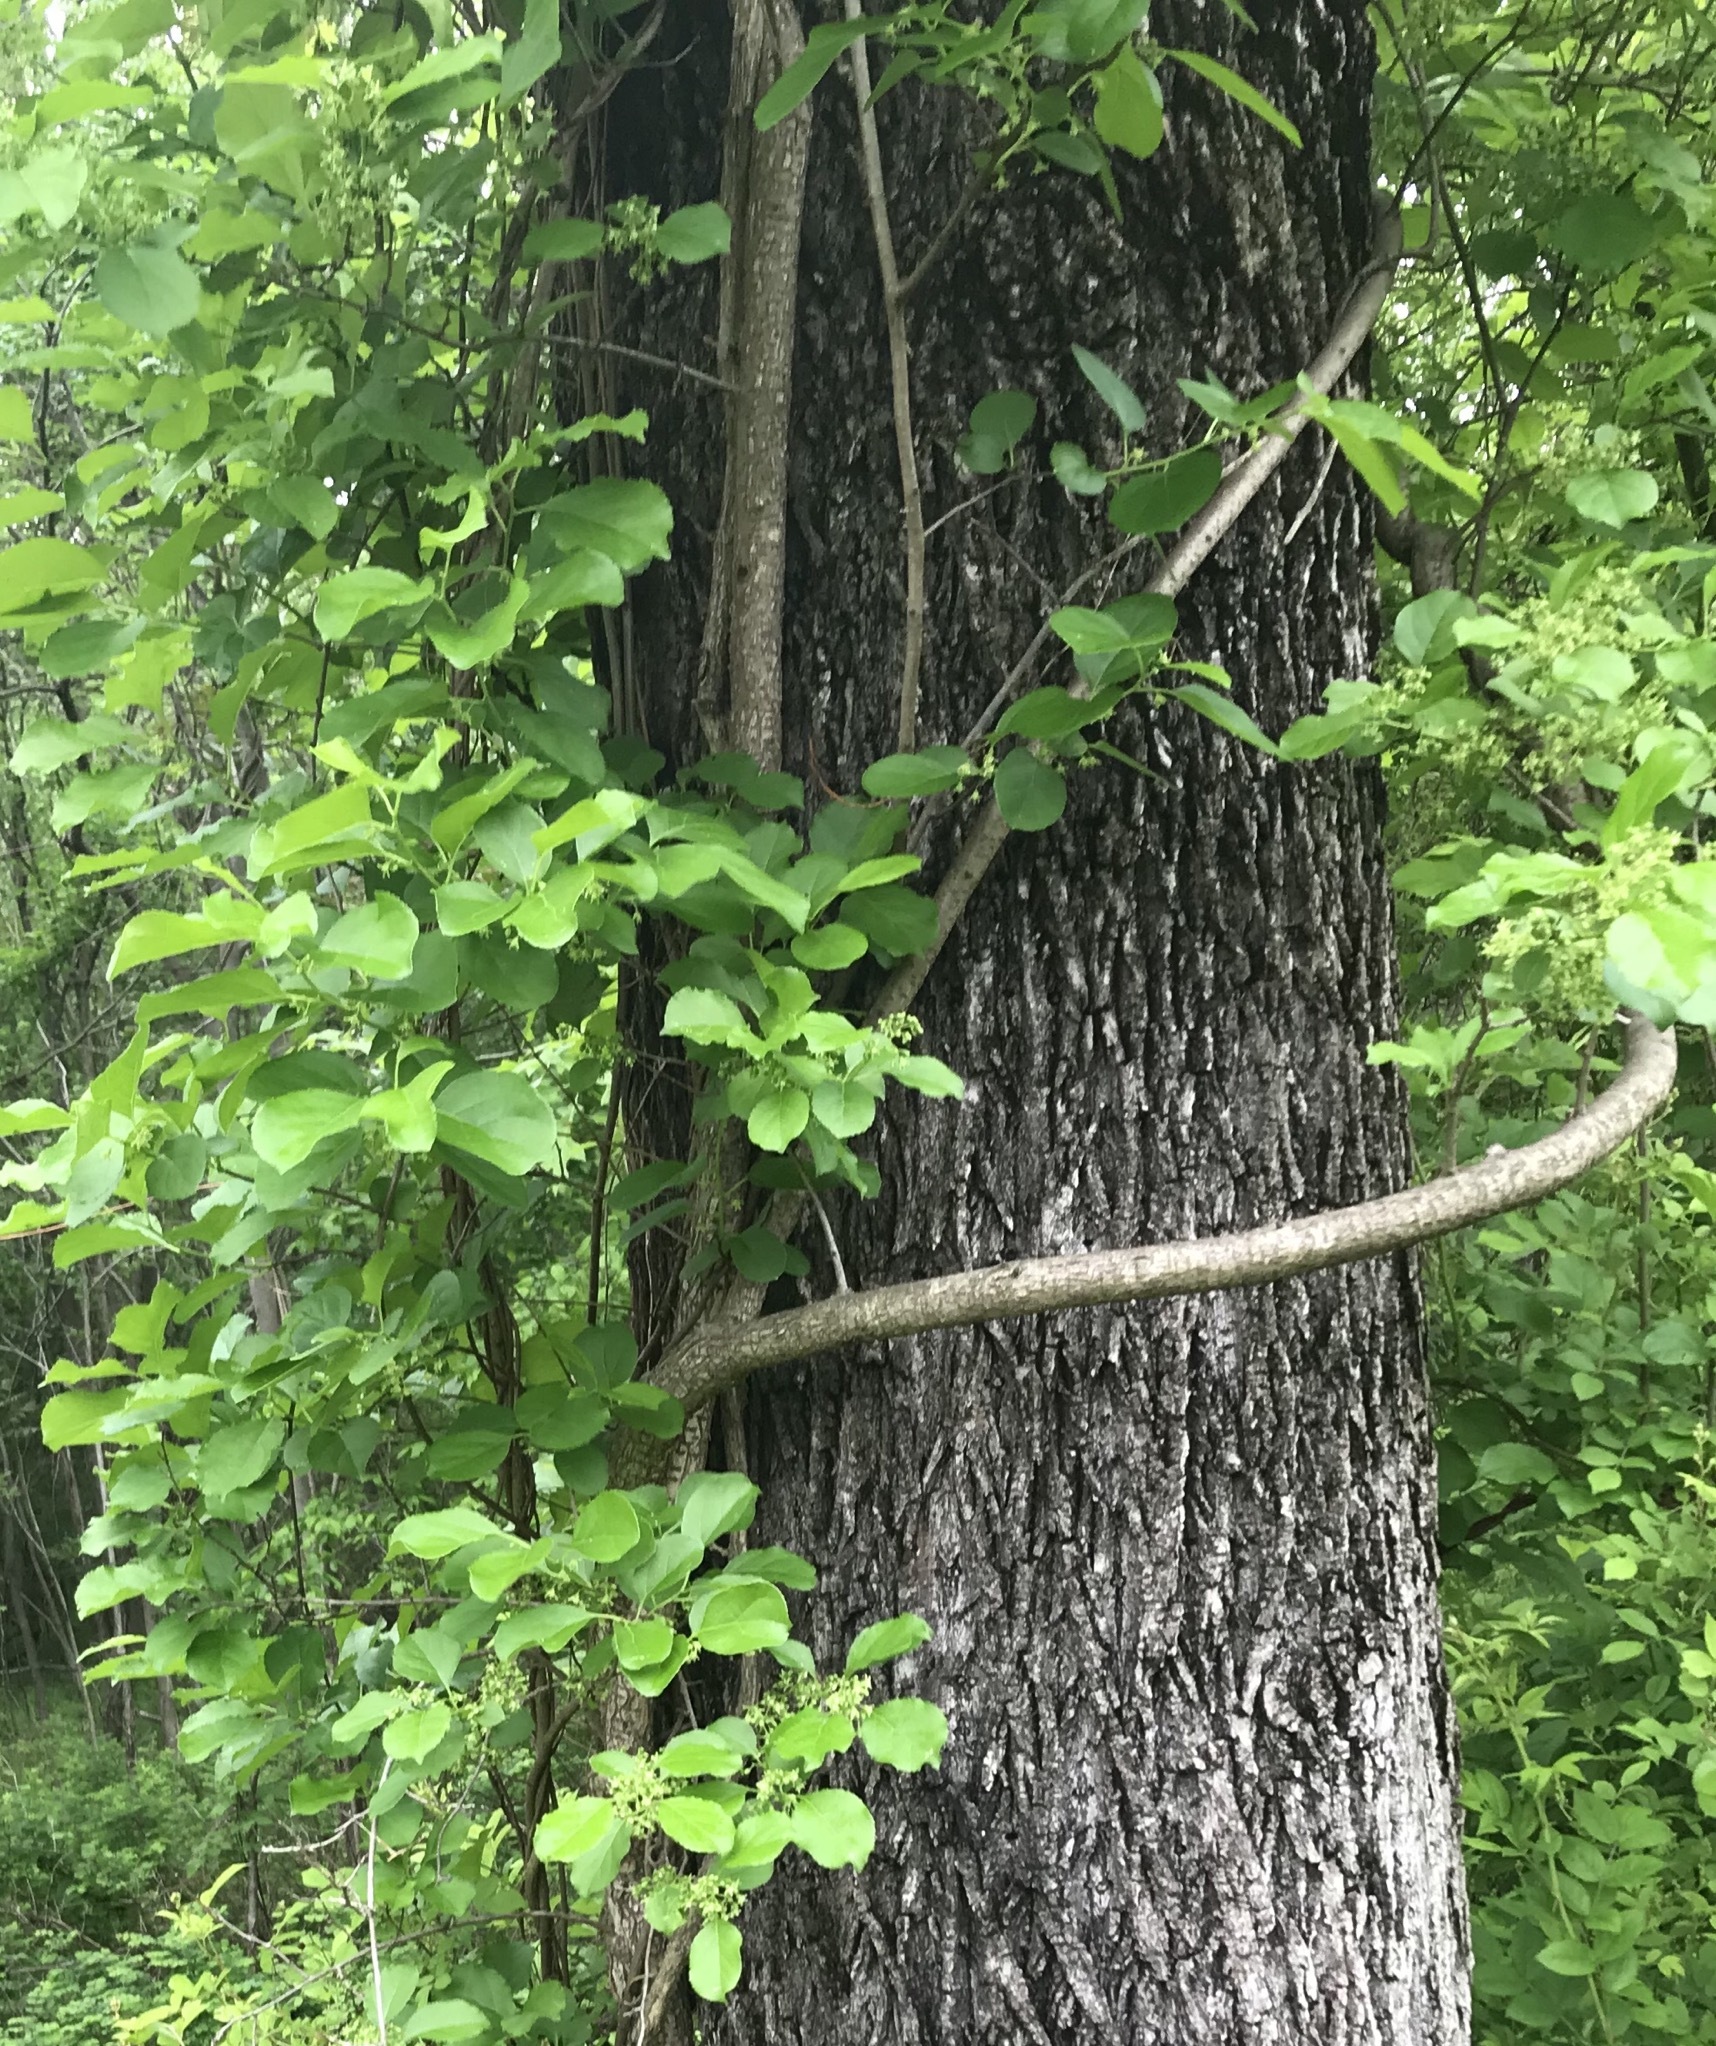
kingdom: Plantae
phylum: Tracheophyta
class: Magnoliopsida
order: Celastrales
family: Celastraceae
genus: Celastrus
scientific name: Celastrus orbiculatus
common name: Oriental bittersweet
